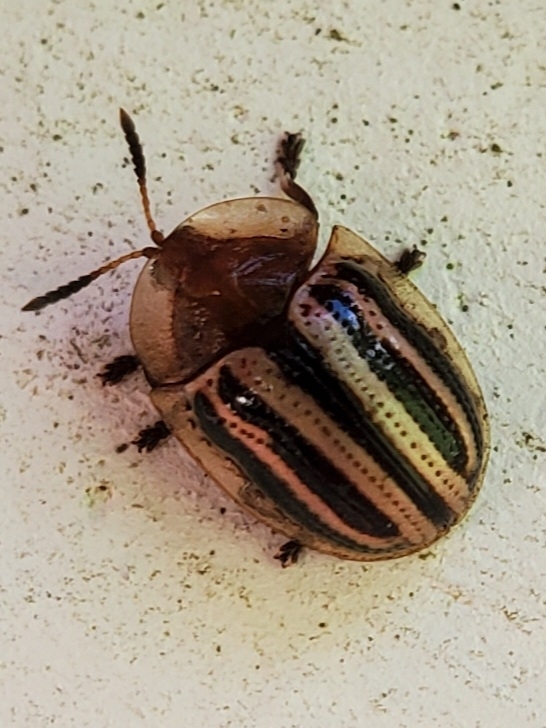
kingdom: Animalia
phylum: Arthropoda
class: Insecta
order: Coleoptera
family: Chrysomelidae
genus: Agroiconota
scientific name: Agroiconota bivittata
